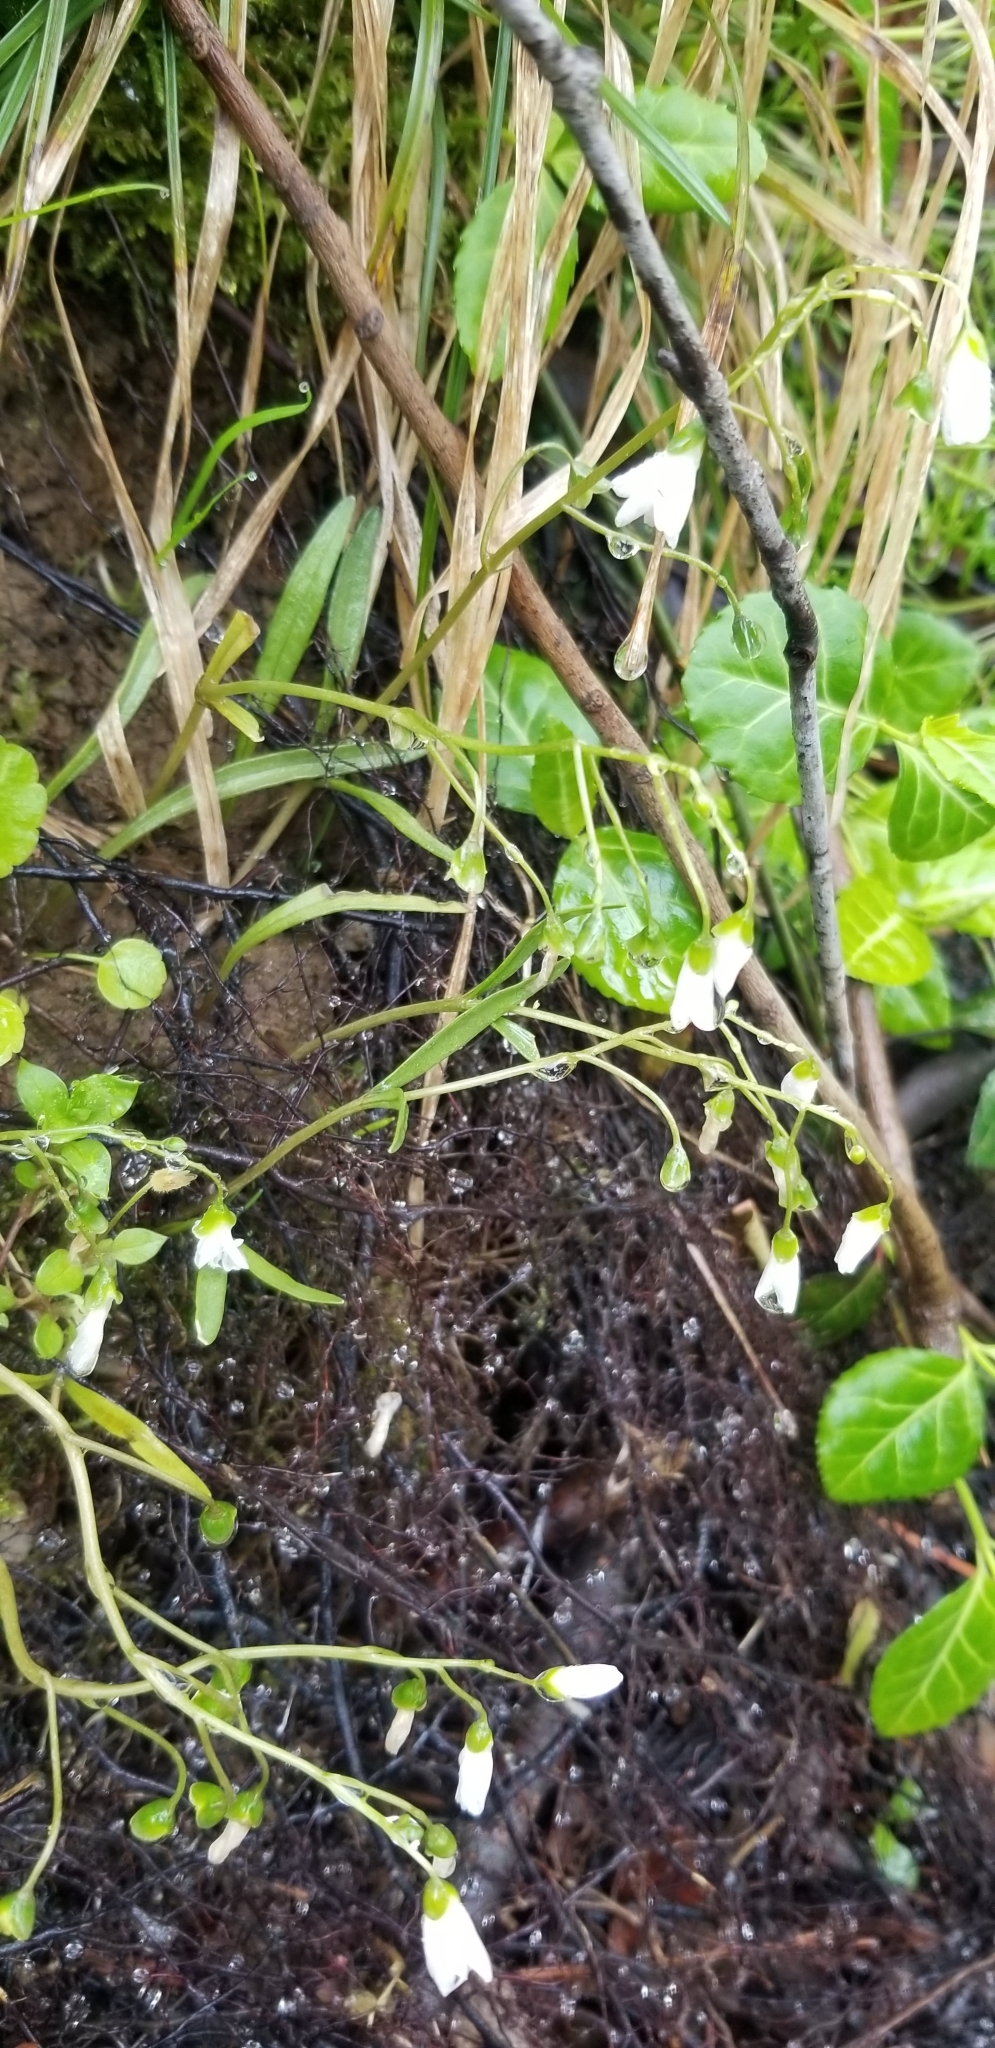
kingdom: Plantae
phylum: Tracheophyta
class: Magnoliopsida
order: Caryophyllales
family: Montiaceae
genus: Claytonia
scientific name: Claytonia virginica
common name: Virginia springbeauty
